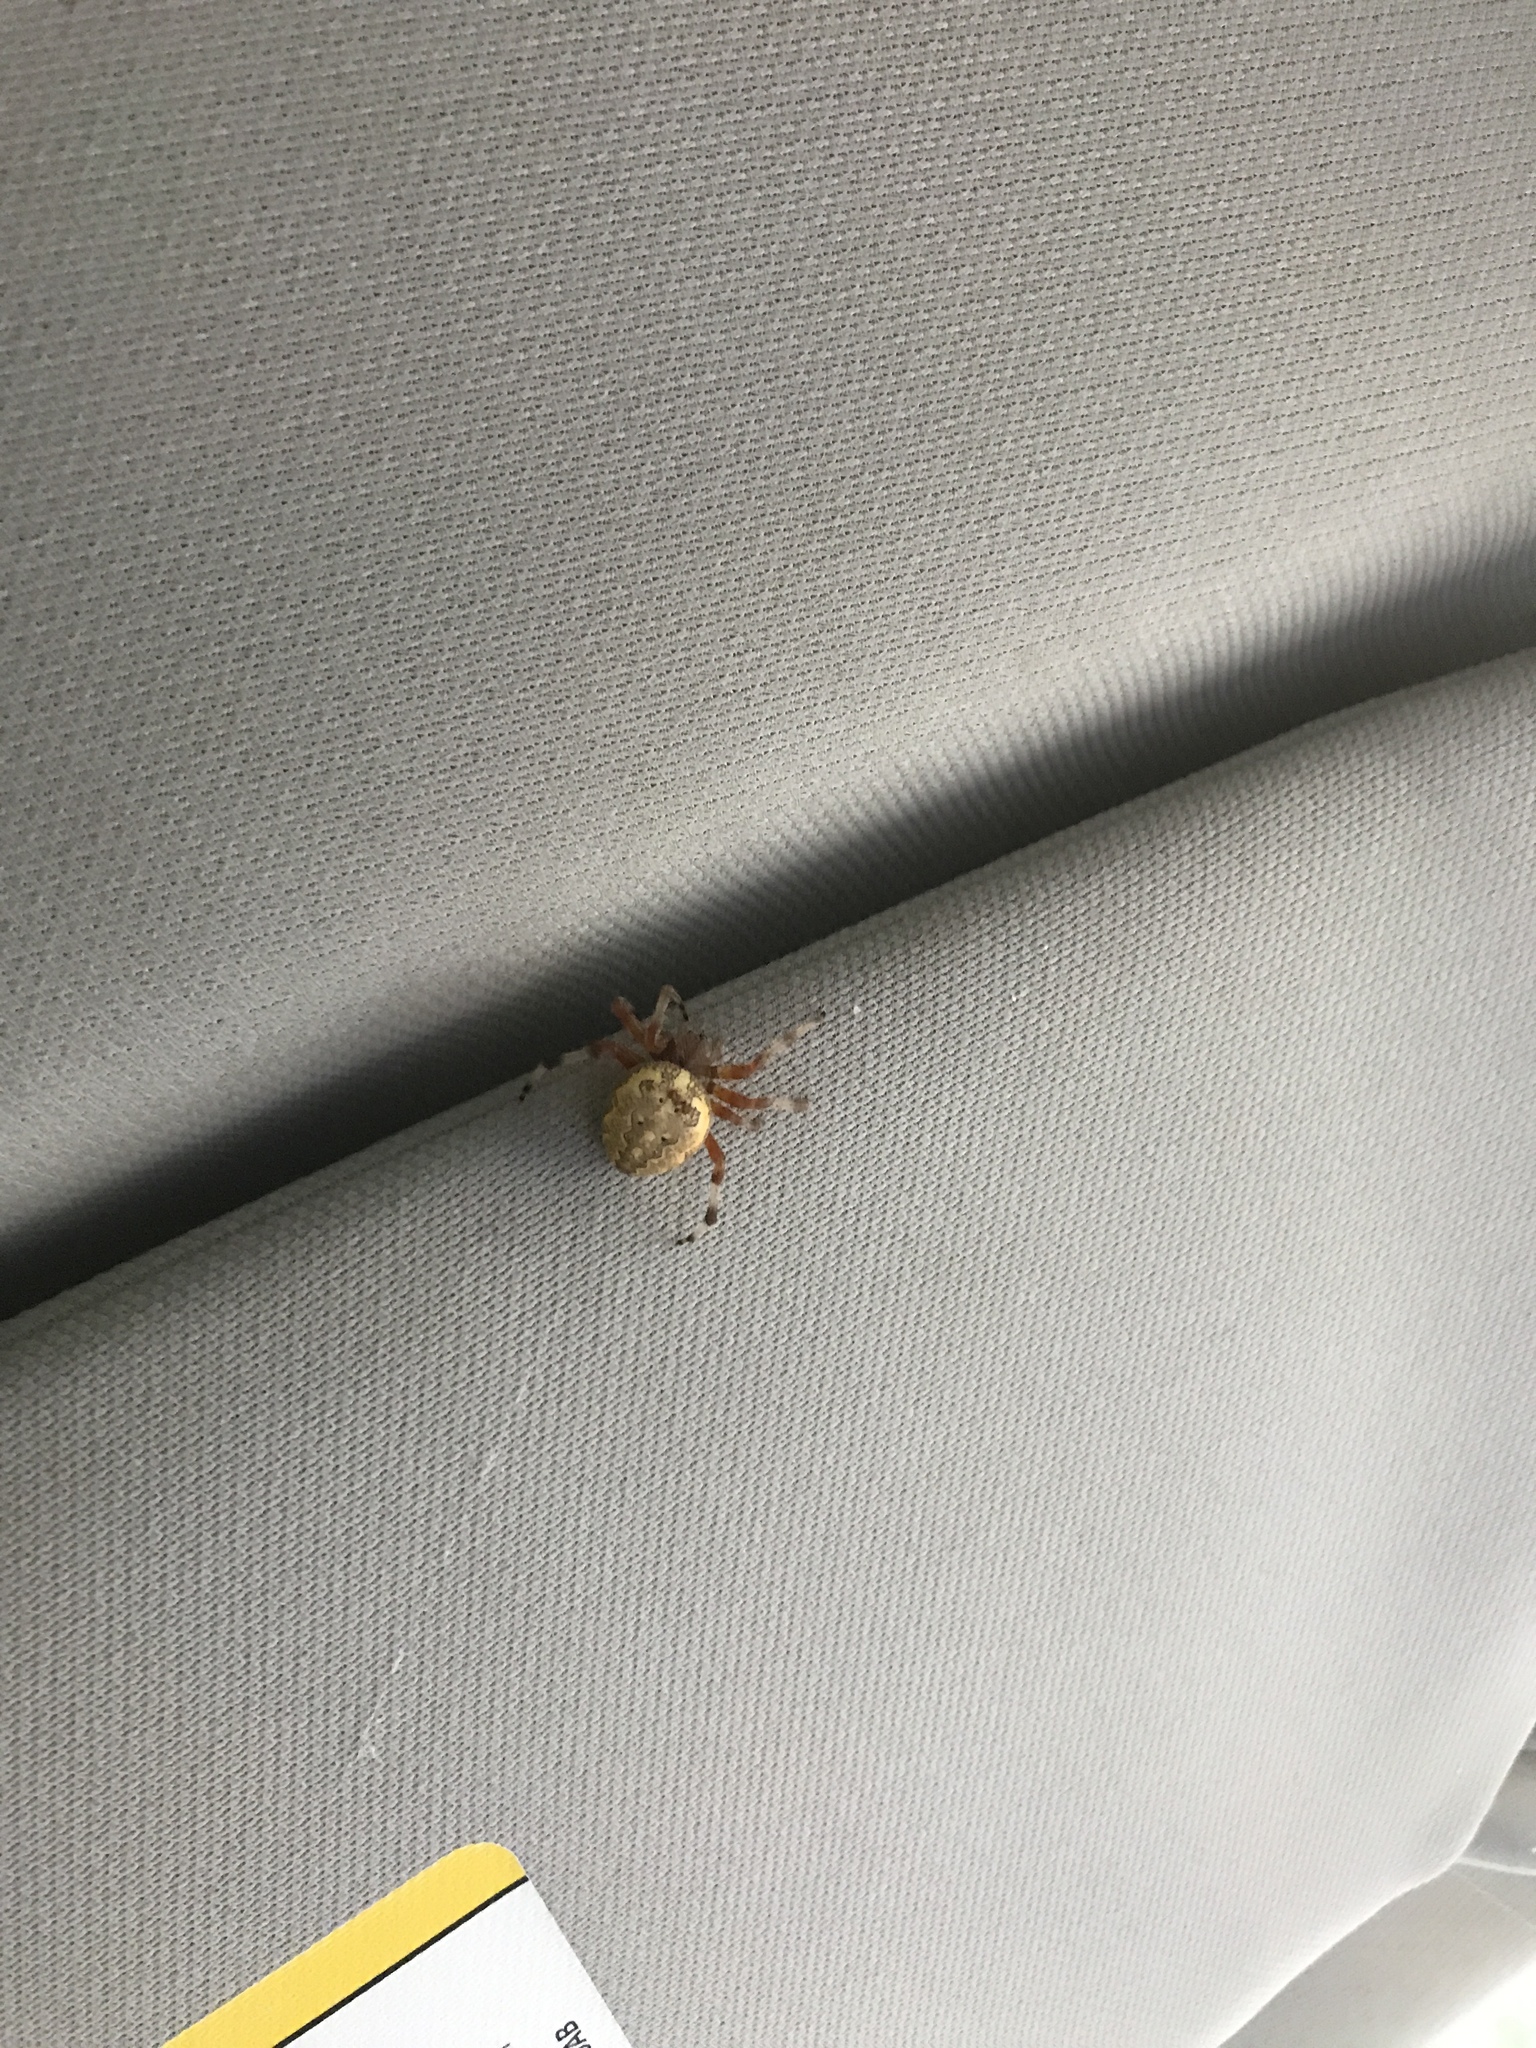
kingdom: Animalia
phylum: Arthropoda
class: Arachnida
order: Araneae
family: Araneidae
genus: Araneus
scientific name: Araneus marmoreus
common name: Marbled orbweaver
